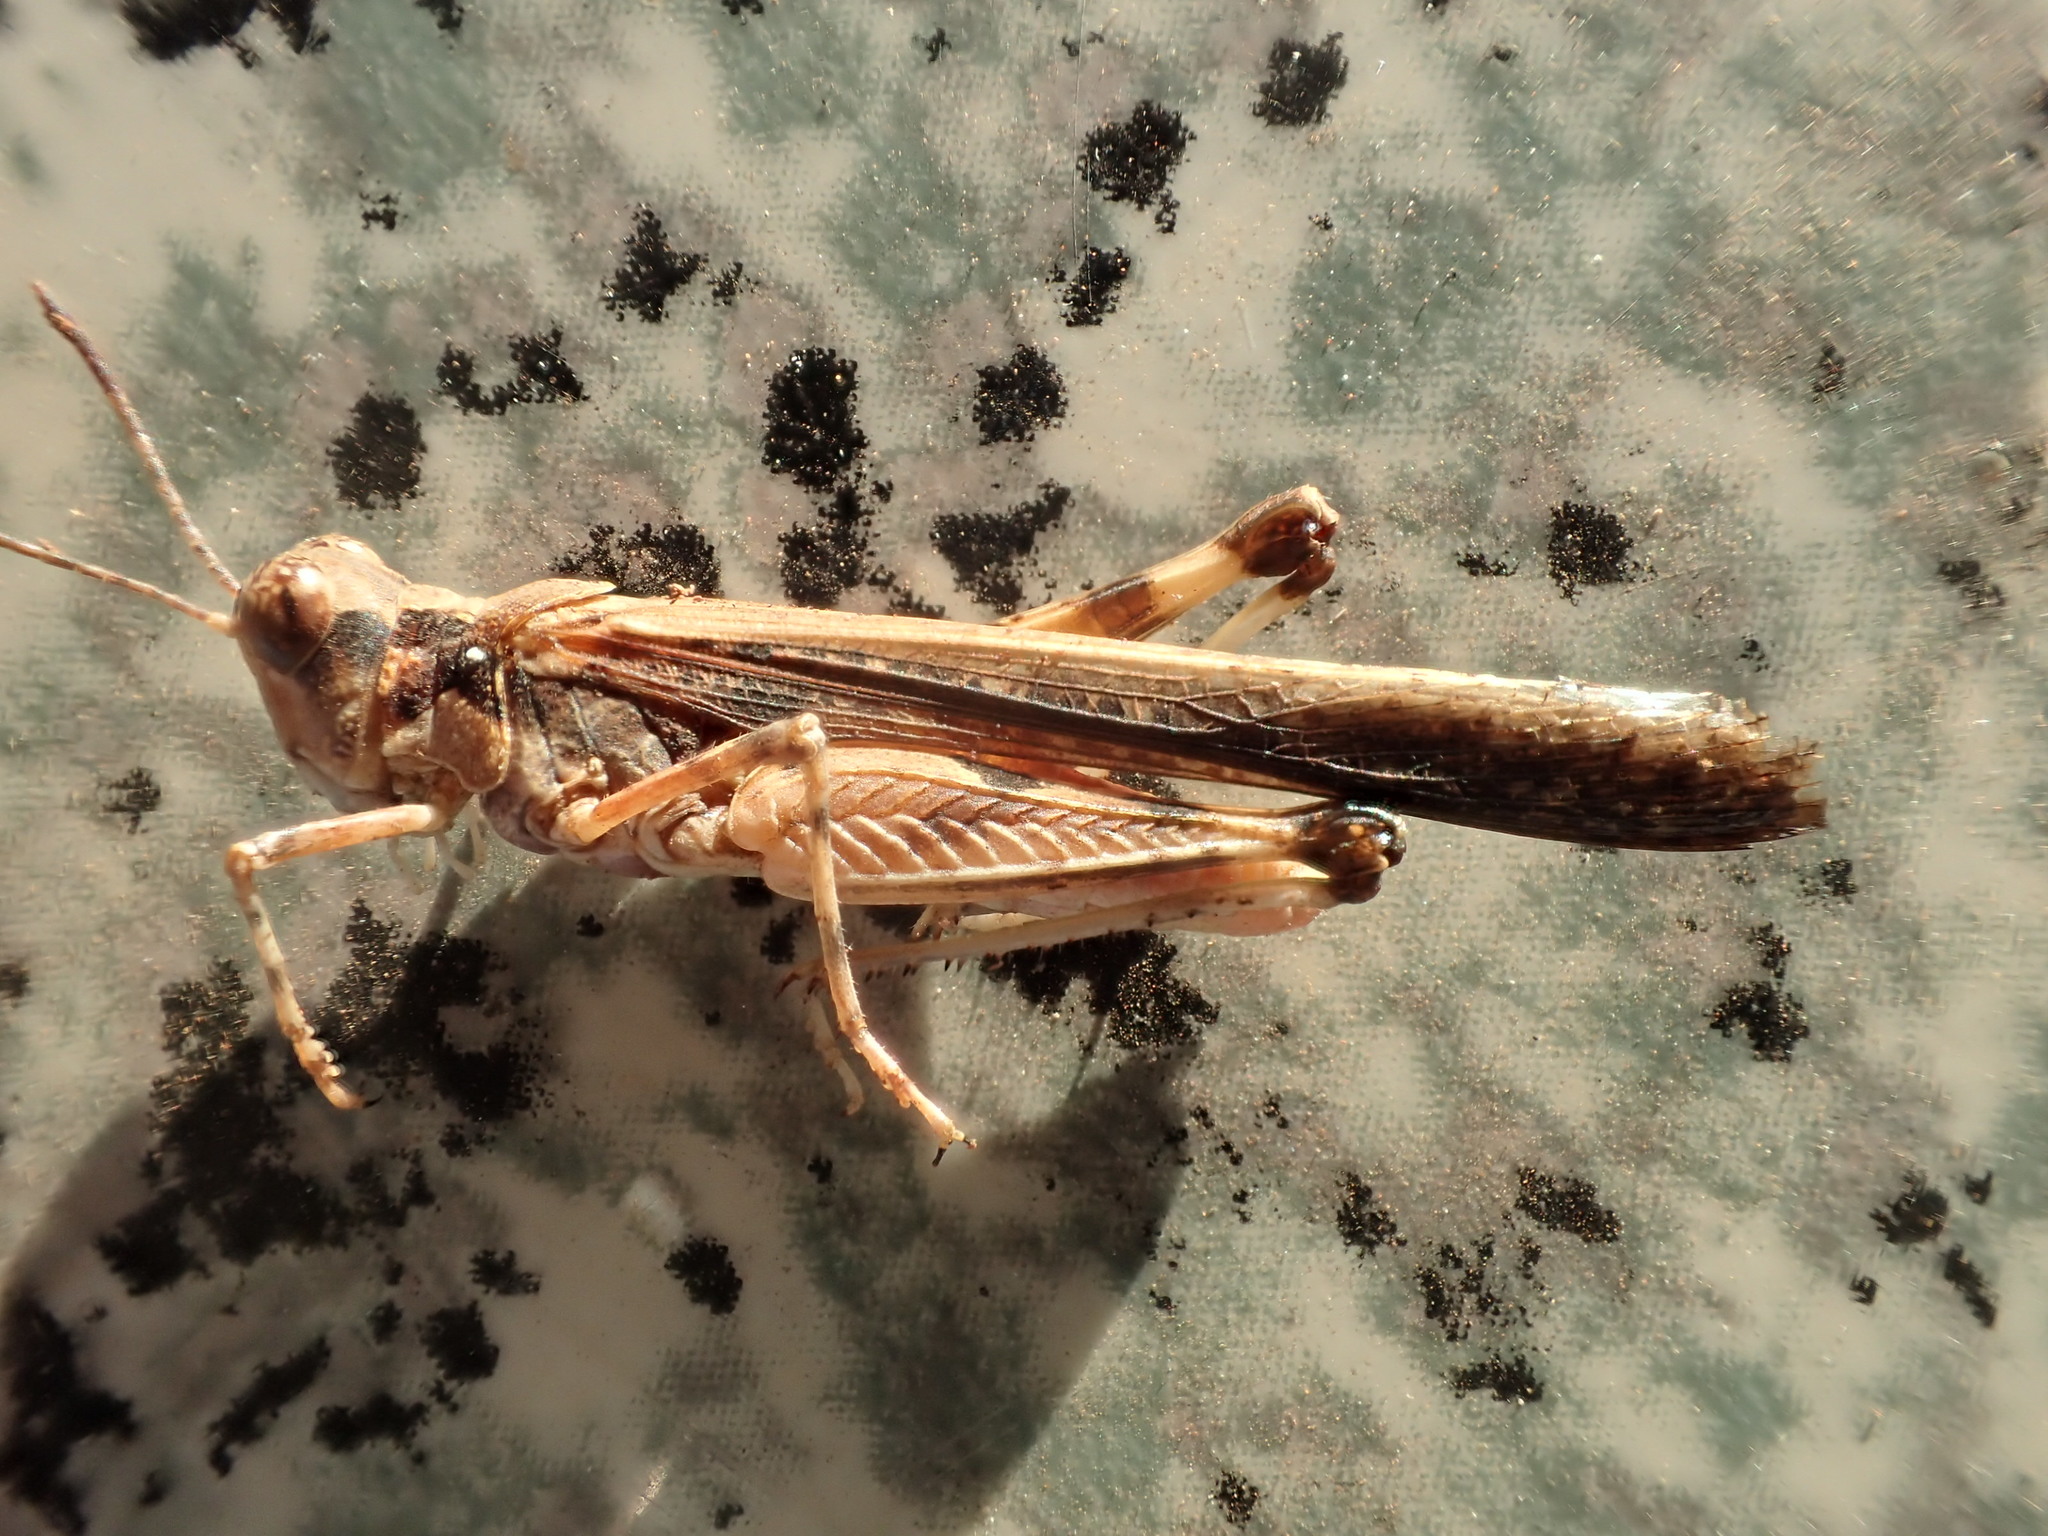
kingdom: Animalia
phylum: Arthropoda
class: Insecta
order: Orthoptera
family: Acrididae
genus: Pycnostictus
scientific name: Pycnostictus seriatus
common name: Common bandwing
